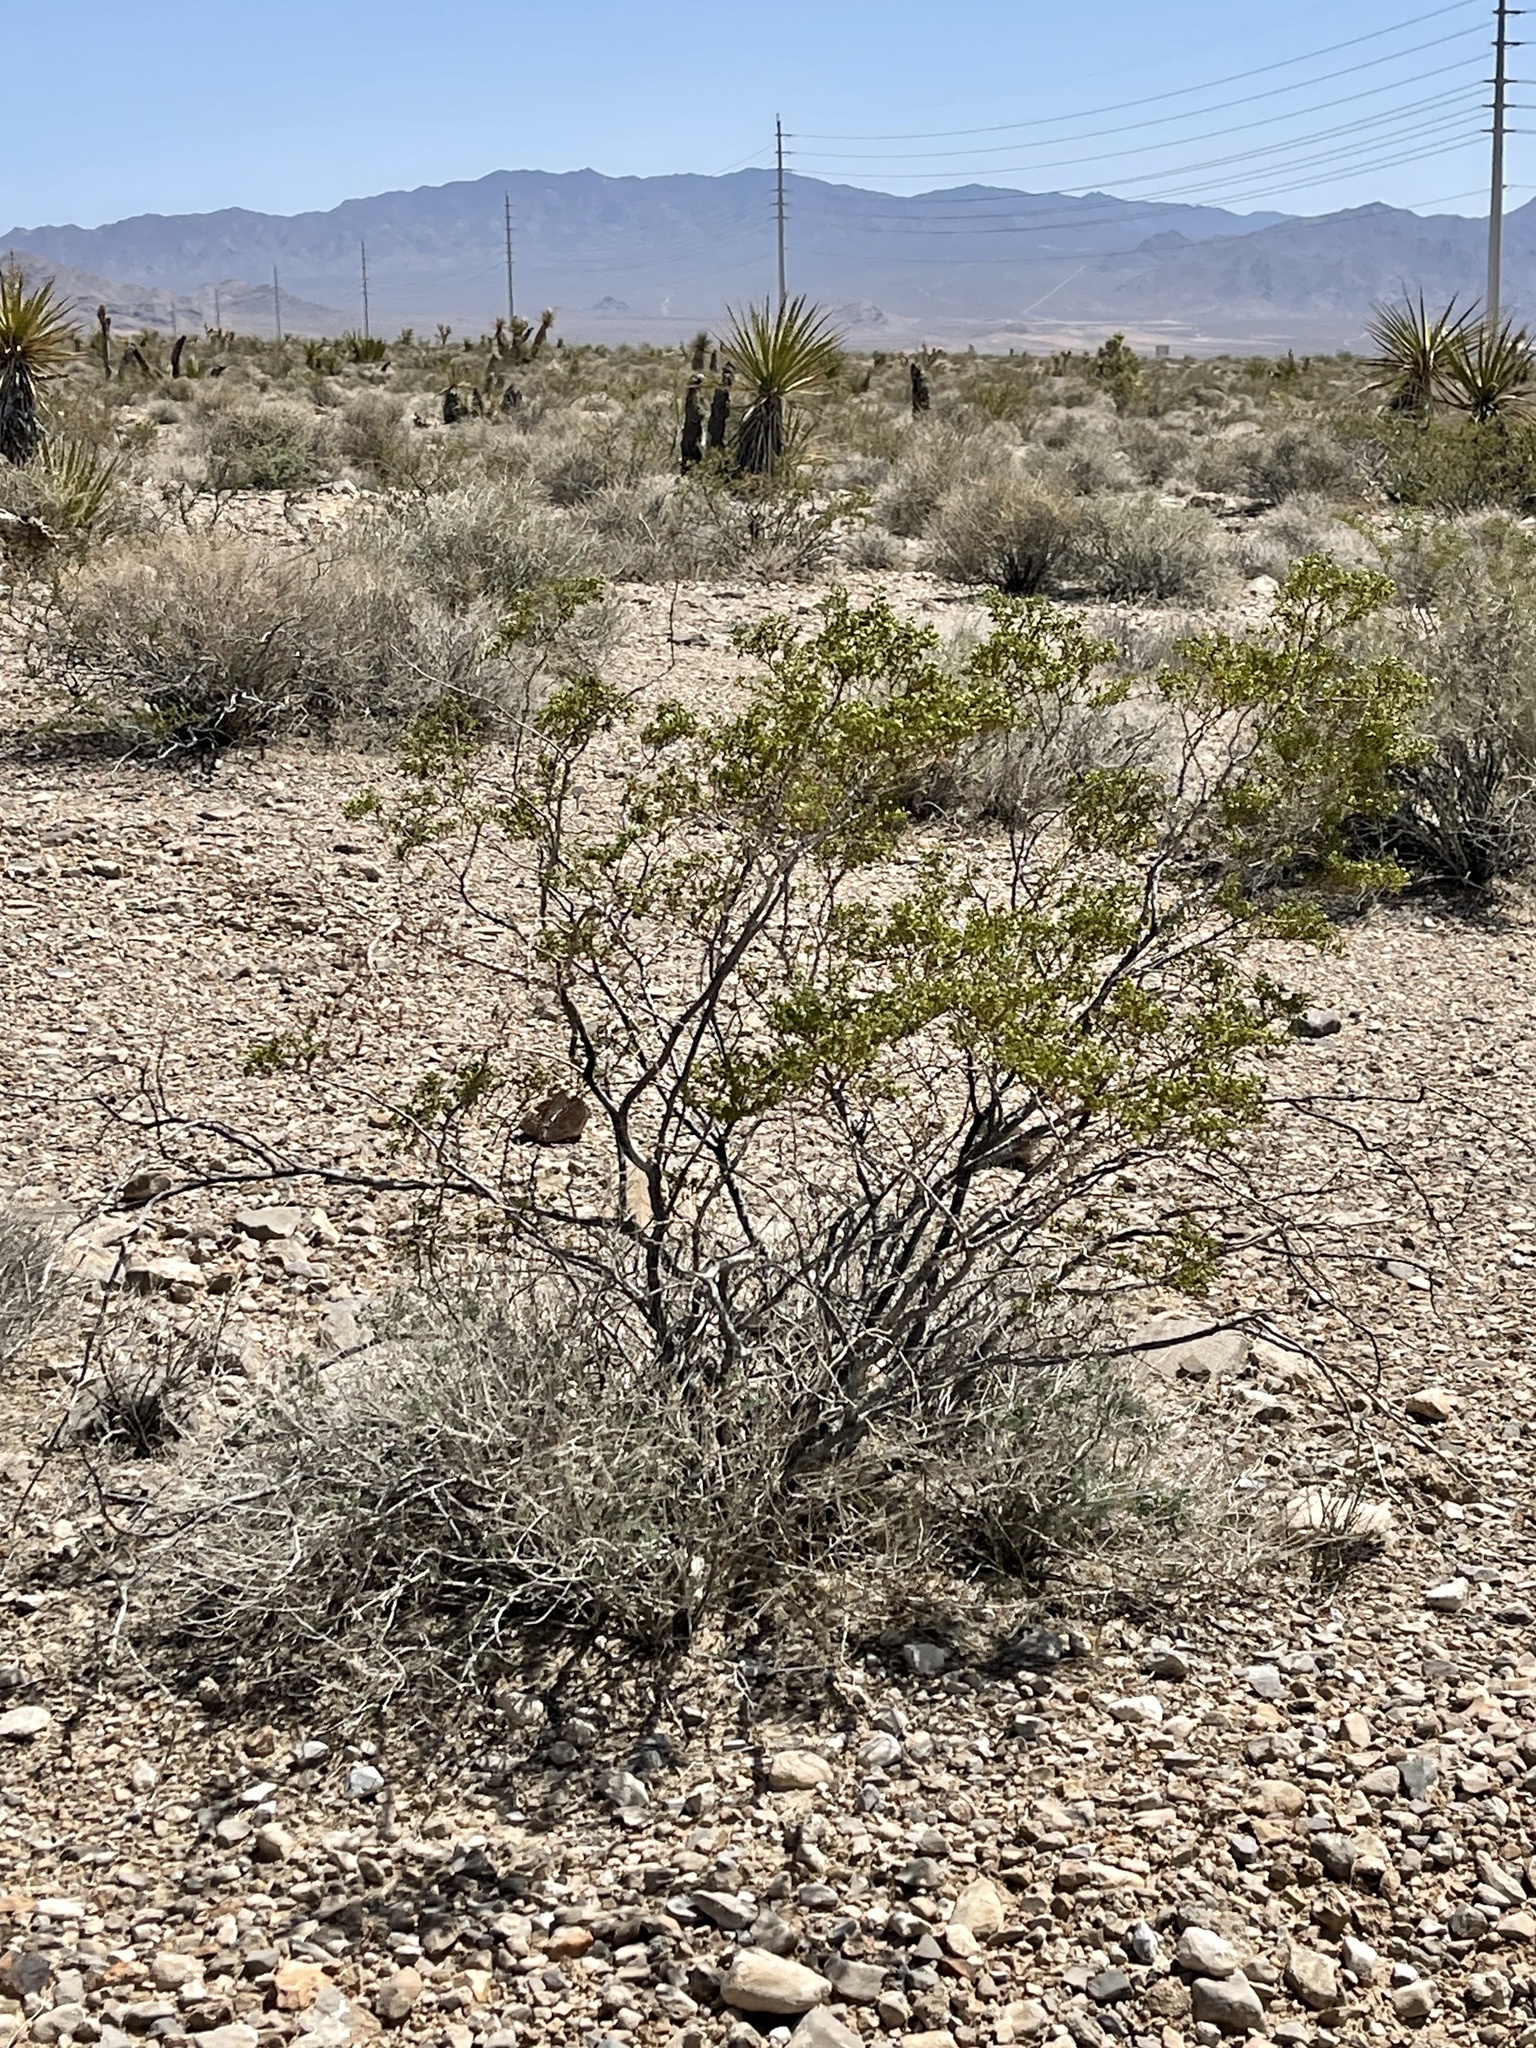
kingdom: Plantae
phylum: Tracheophyta
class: Magnoliopsida
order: Zygophyllales
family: Zygophyllaceae
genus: Larrea
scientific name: Larrea tridentata
